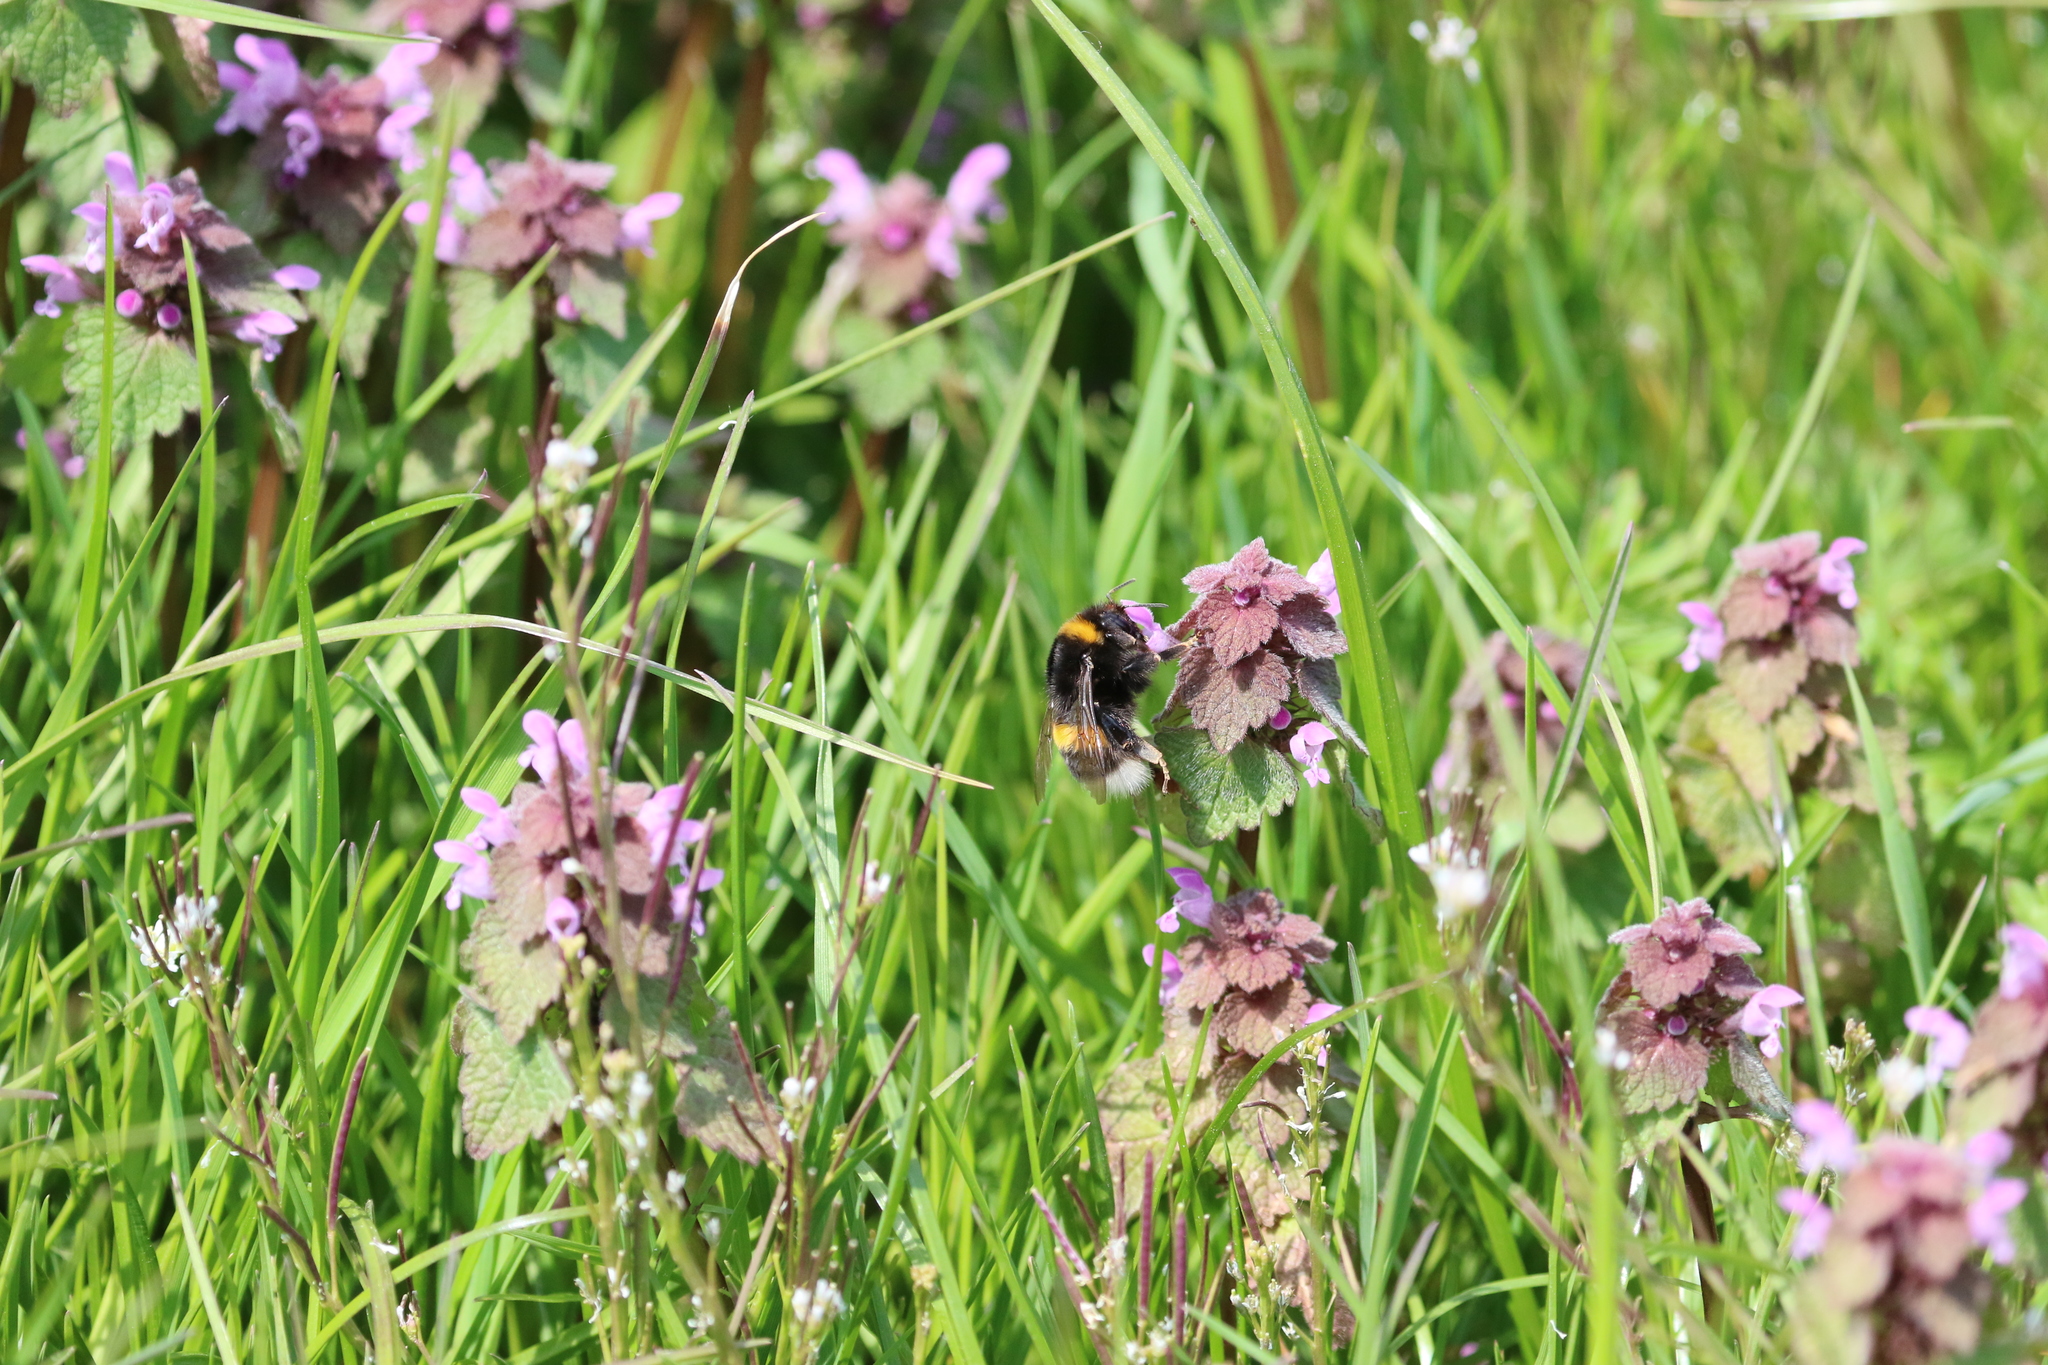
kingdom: Animalia
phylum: Arthropoda
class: Insecta
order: Hymenoptera
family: Apidae
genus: Bombus
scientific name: Bombus terrestris
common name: Buff-tailed bumblebee
